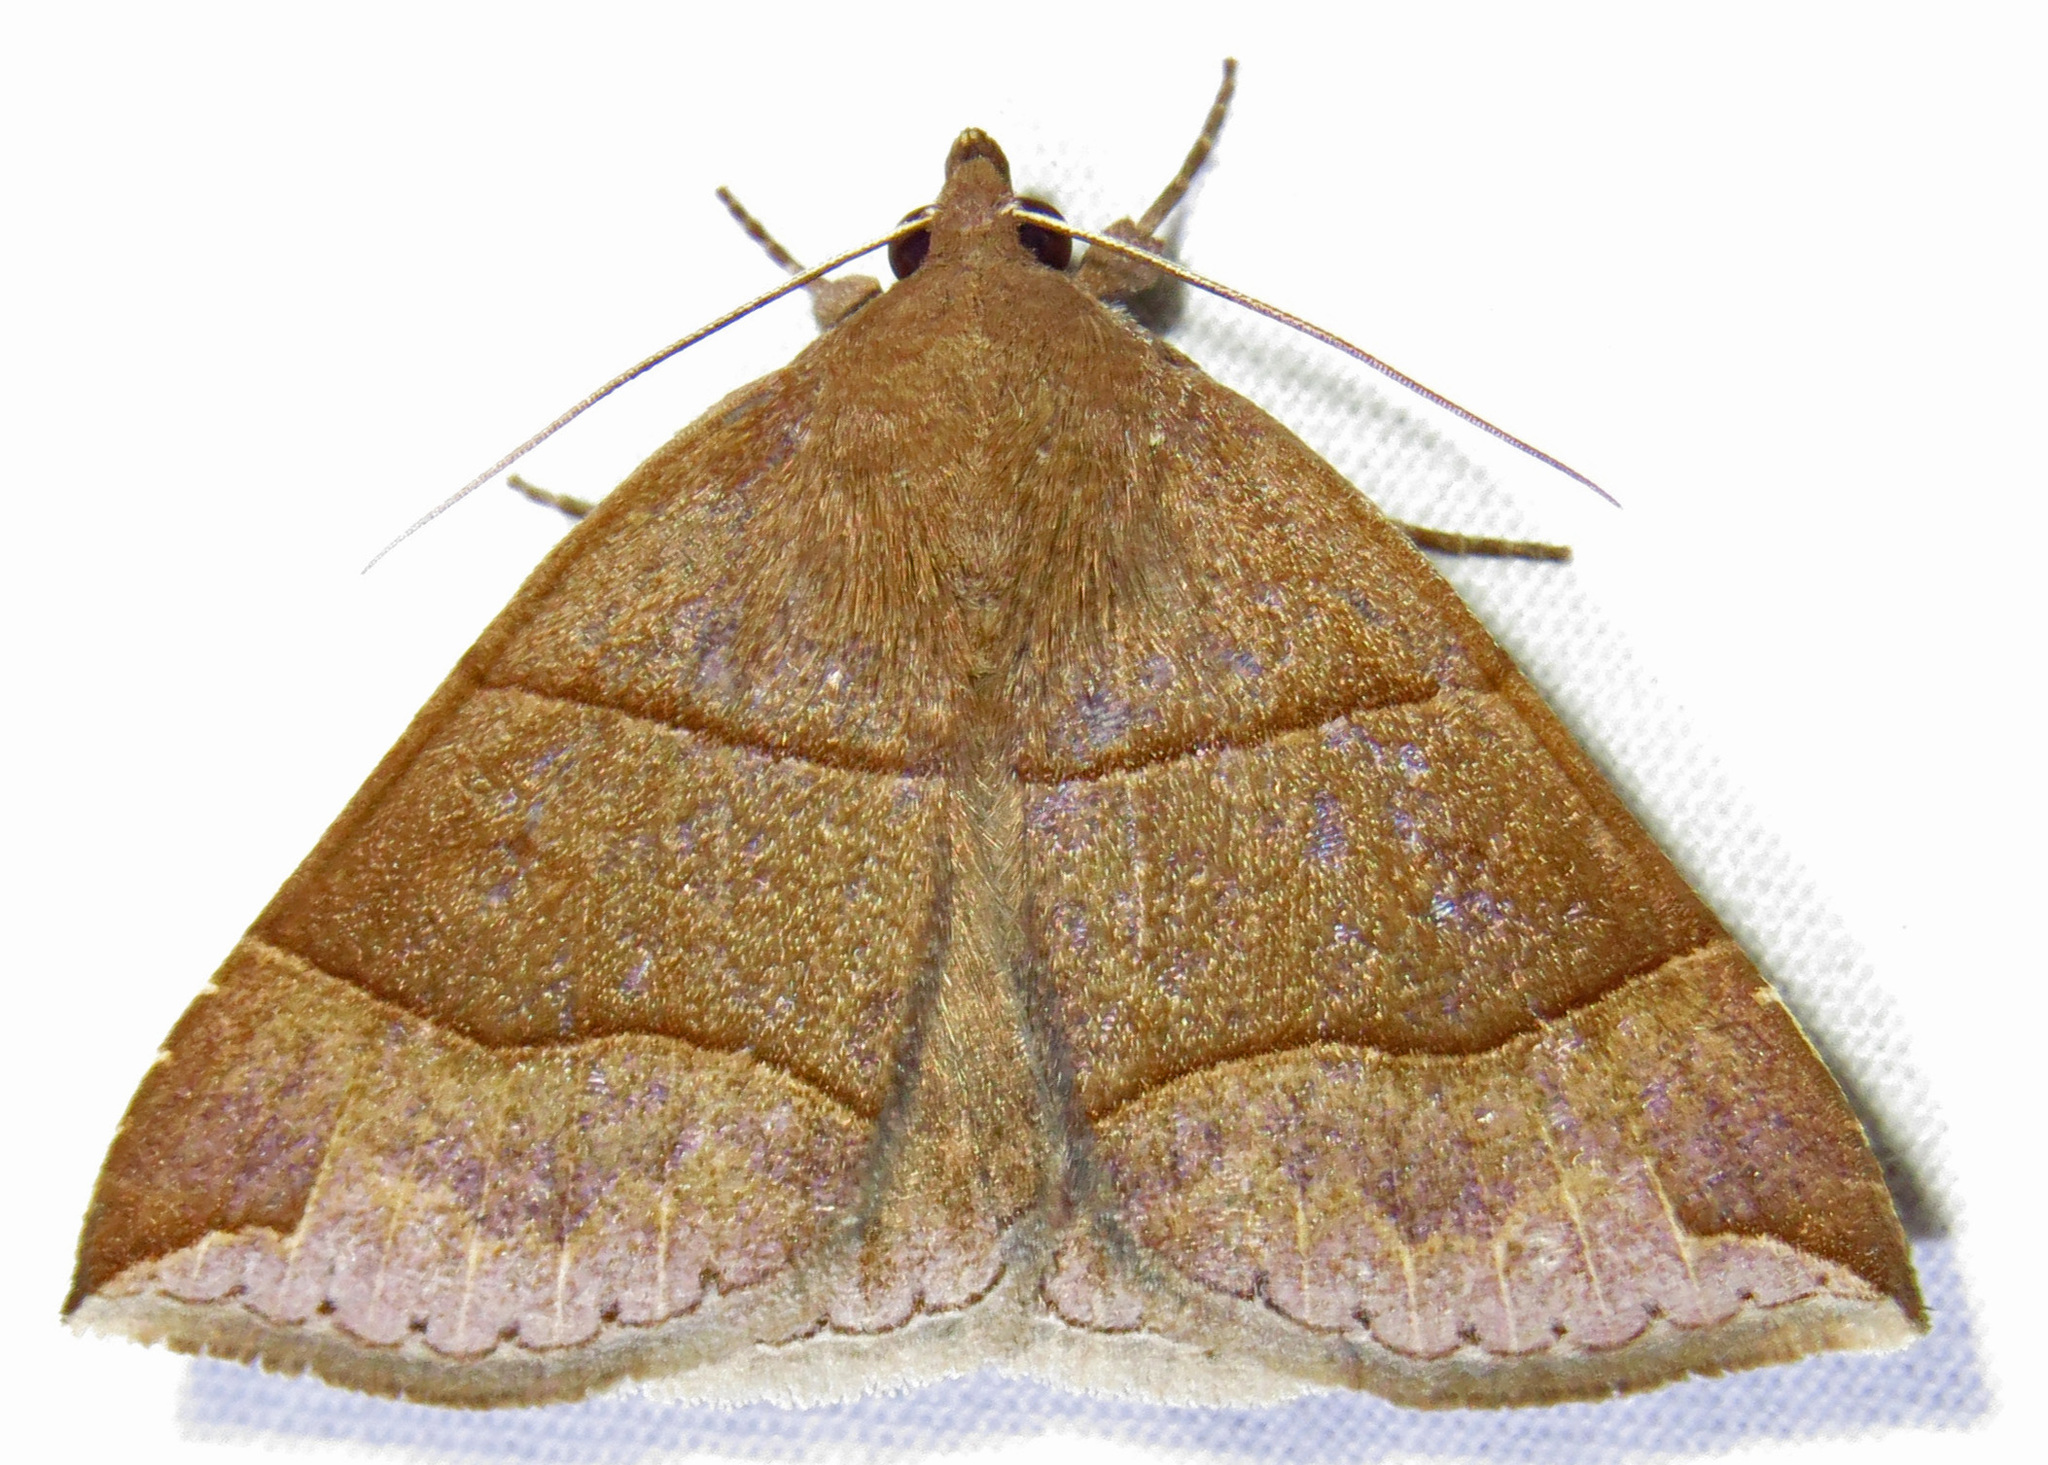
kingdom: Animalia
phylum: Arthropoda
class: Insecta
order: Lepidoptera
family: Erebidae
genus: Parallelia
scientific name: Parallelia bistriaris
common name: Maple looper moth
